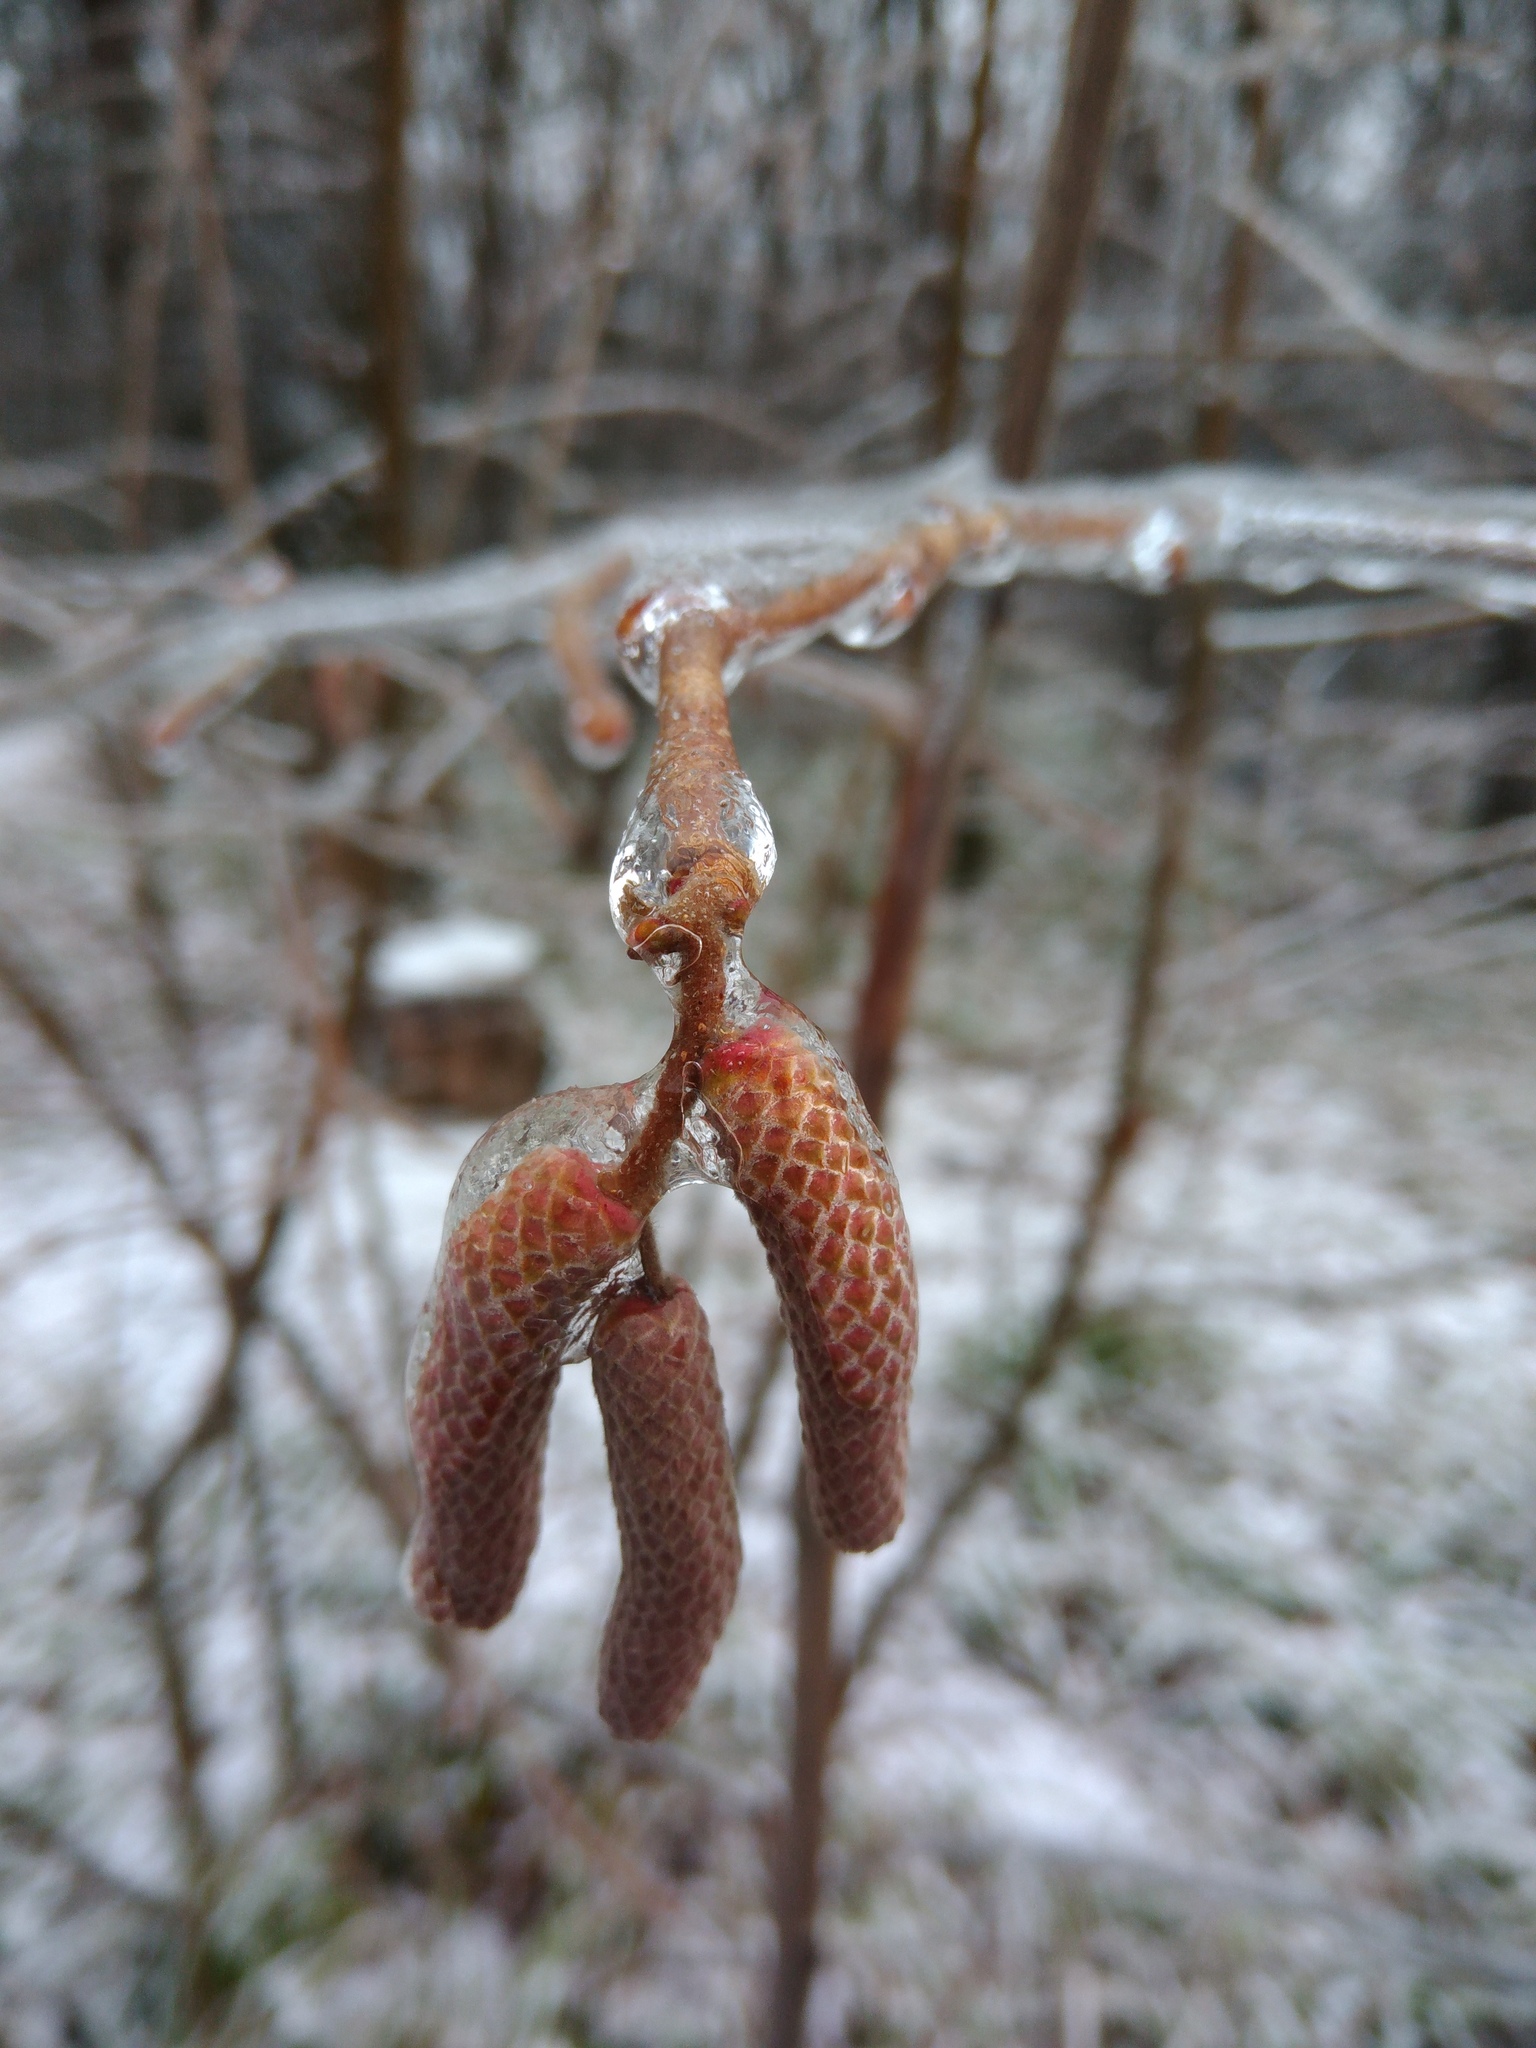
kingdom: Plantae
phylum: Tracheophyta
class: Magnoliopsida
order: Fagales
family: Betulaceae
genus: Corylus
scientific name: Corylus avellana
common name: European hazel
